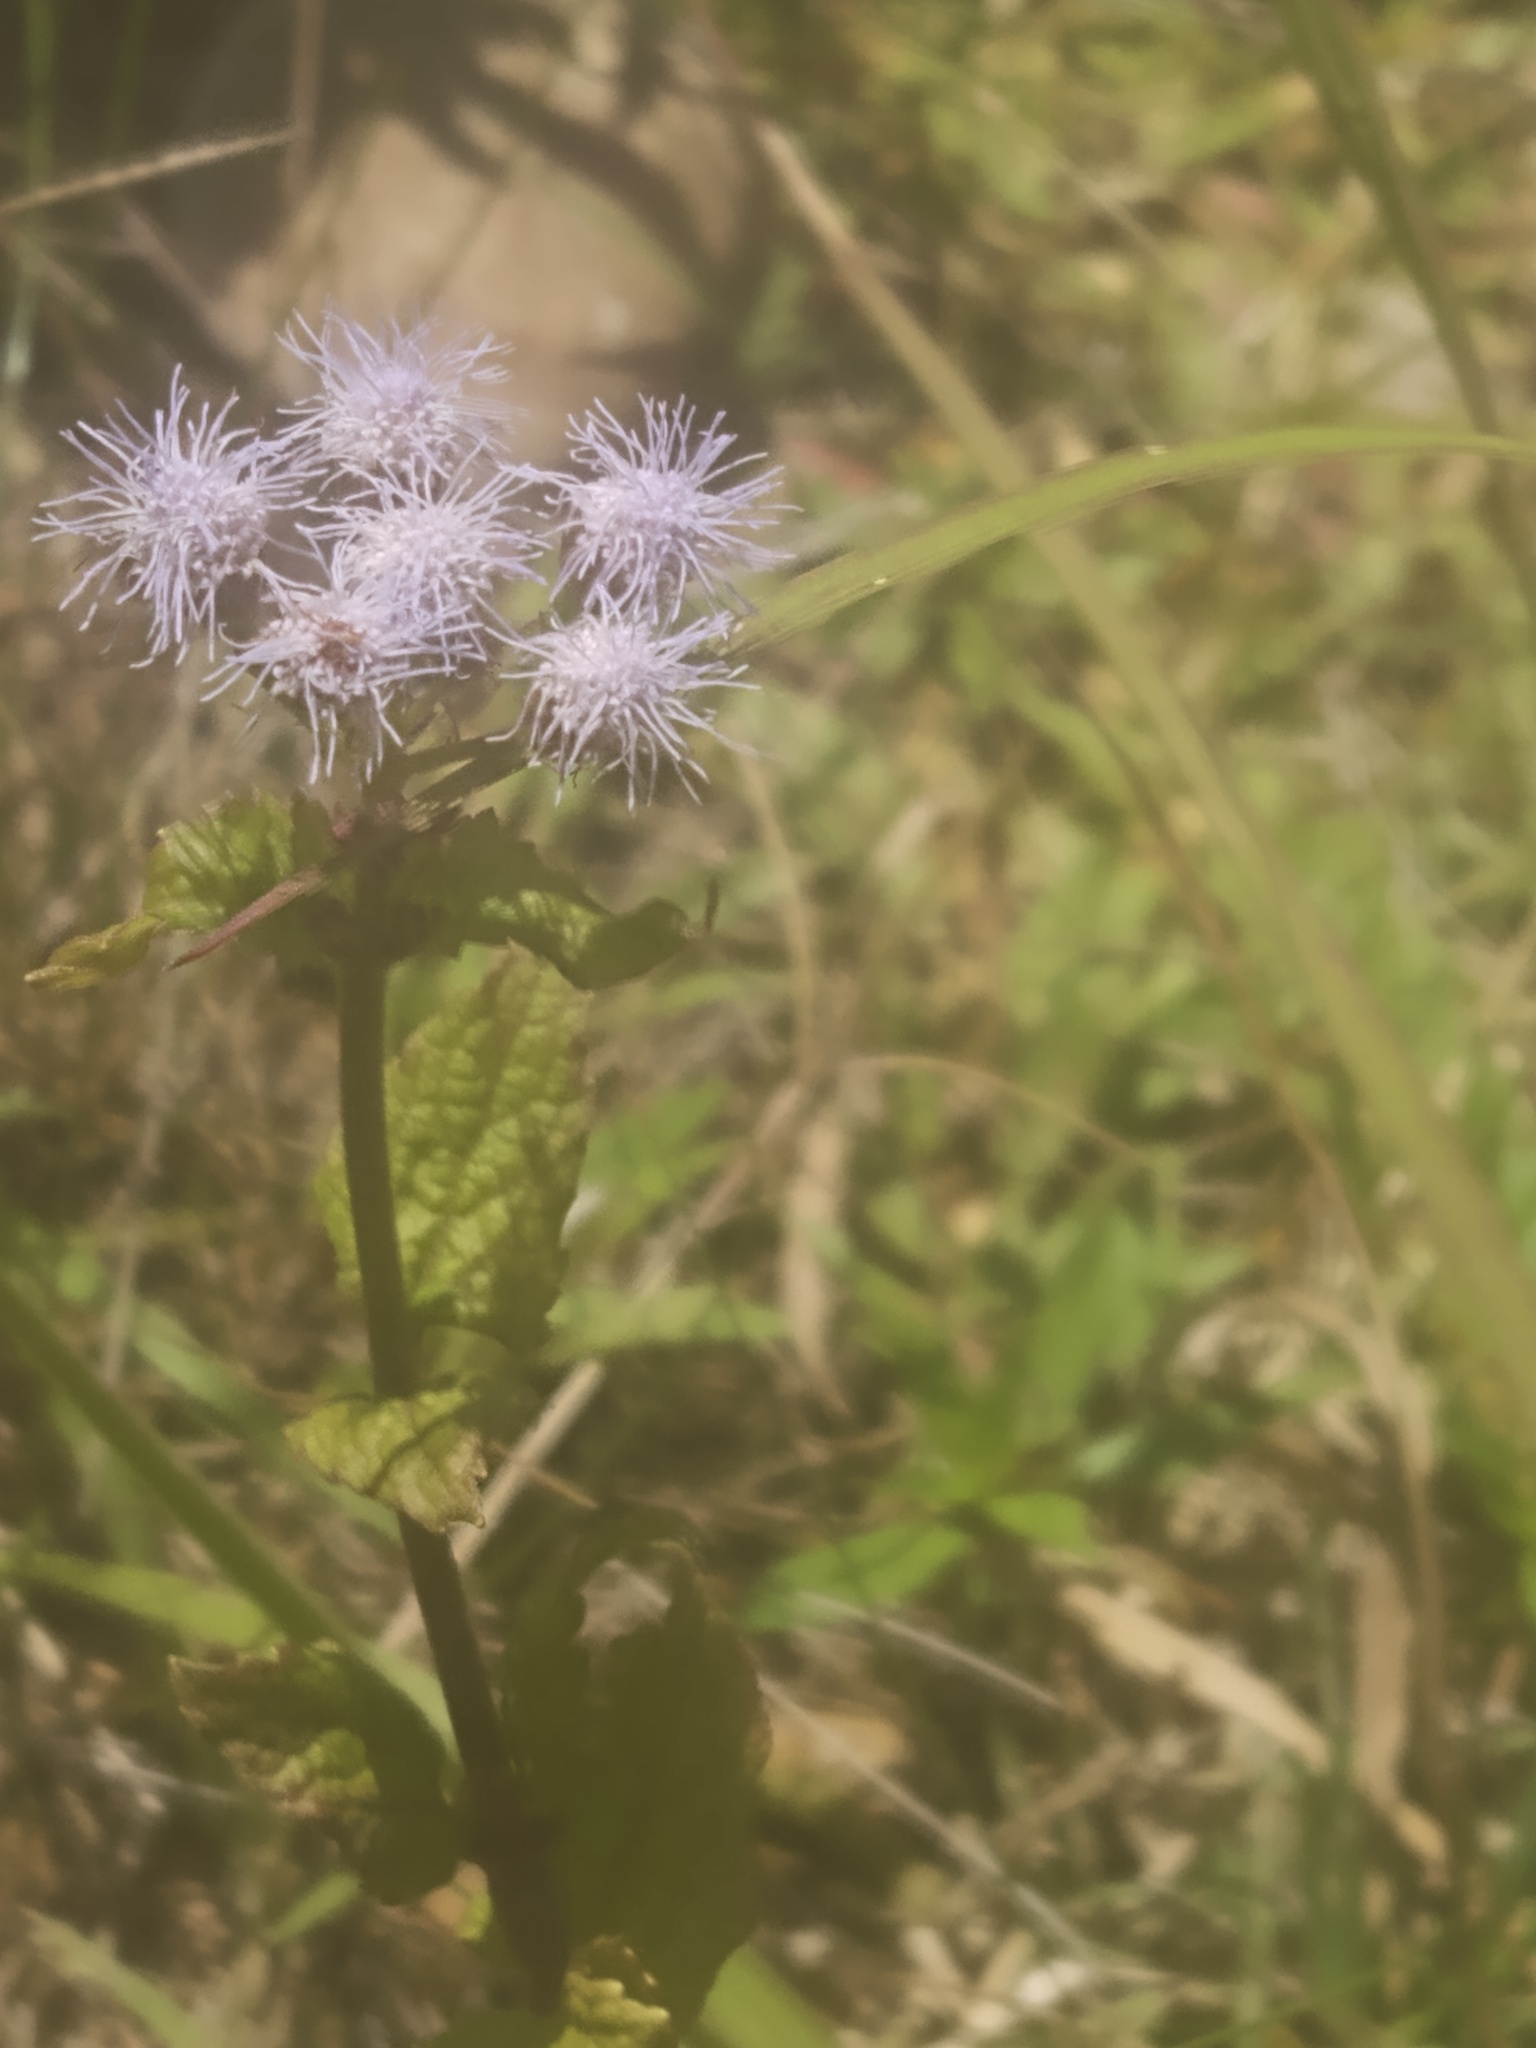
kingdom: Plantae
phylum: Tracheophyta
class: Magnoliopsida
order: Asterales
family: Asteraceae
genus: Conoclinium
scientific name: Conoclinium coelestinum
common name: Blue mistflower
